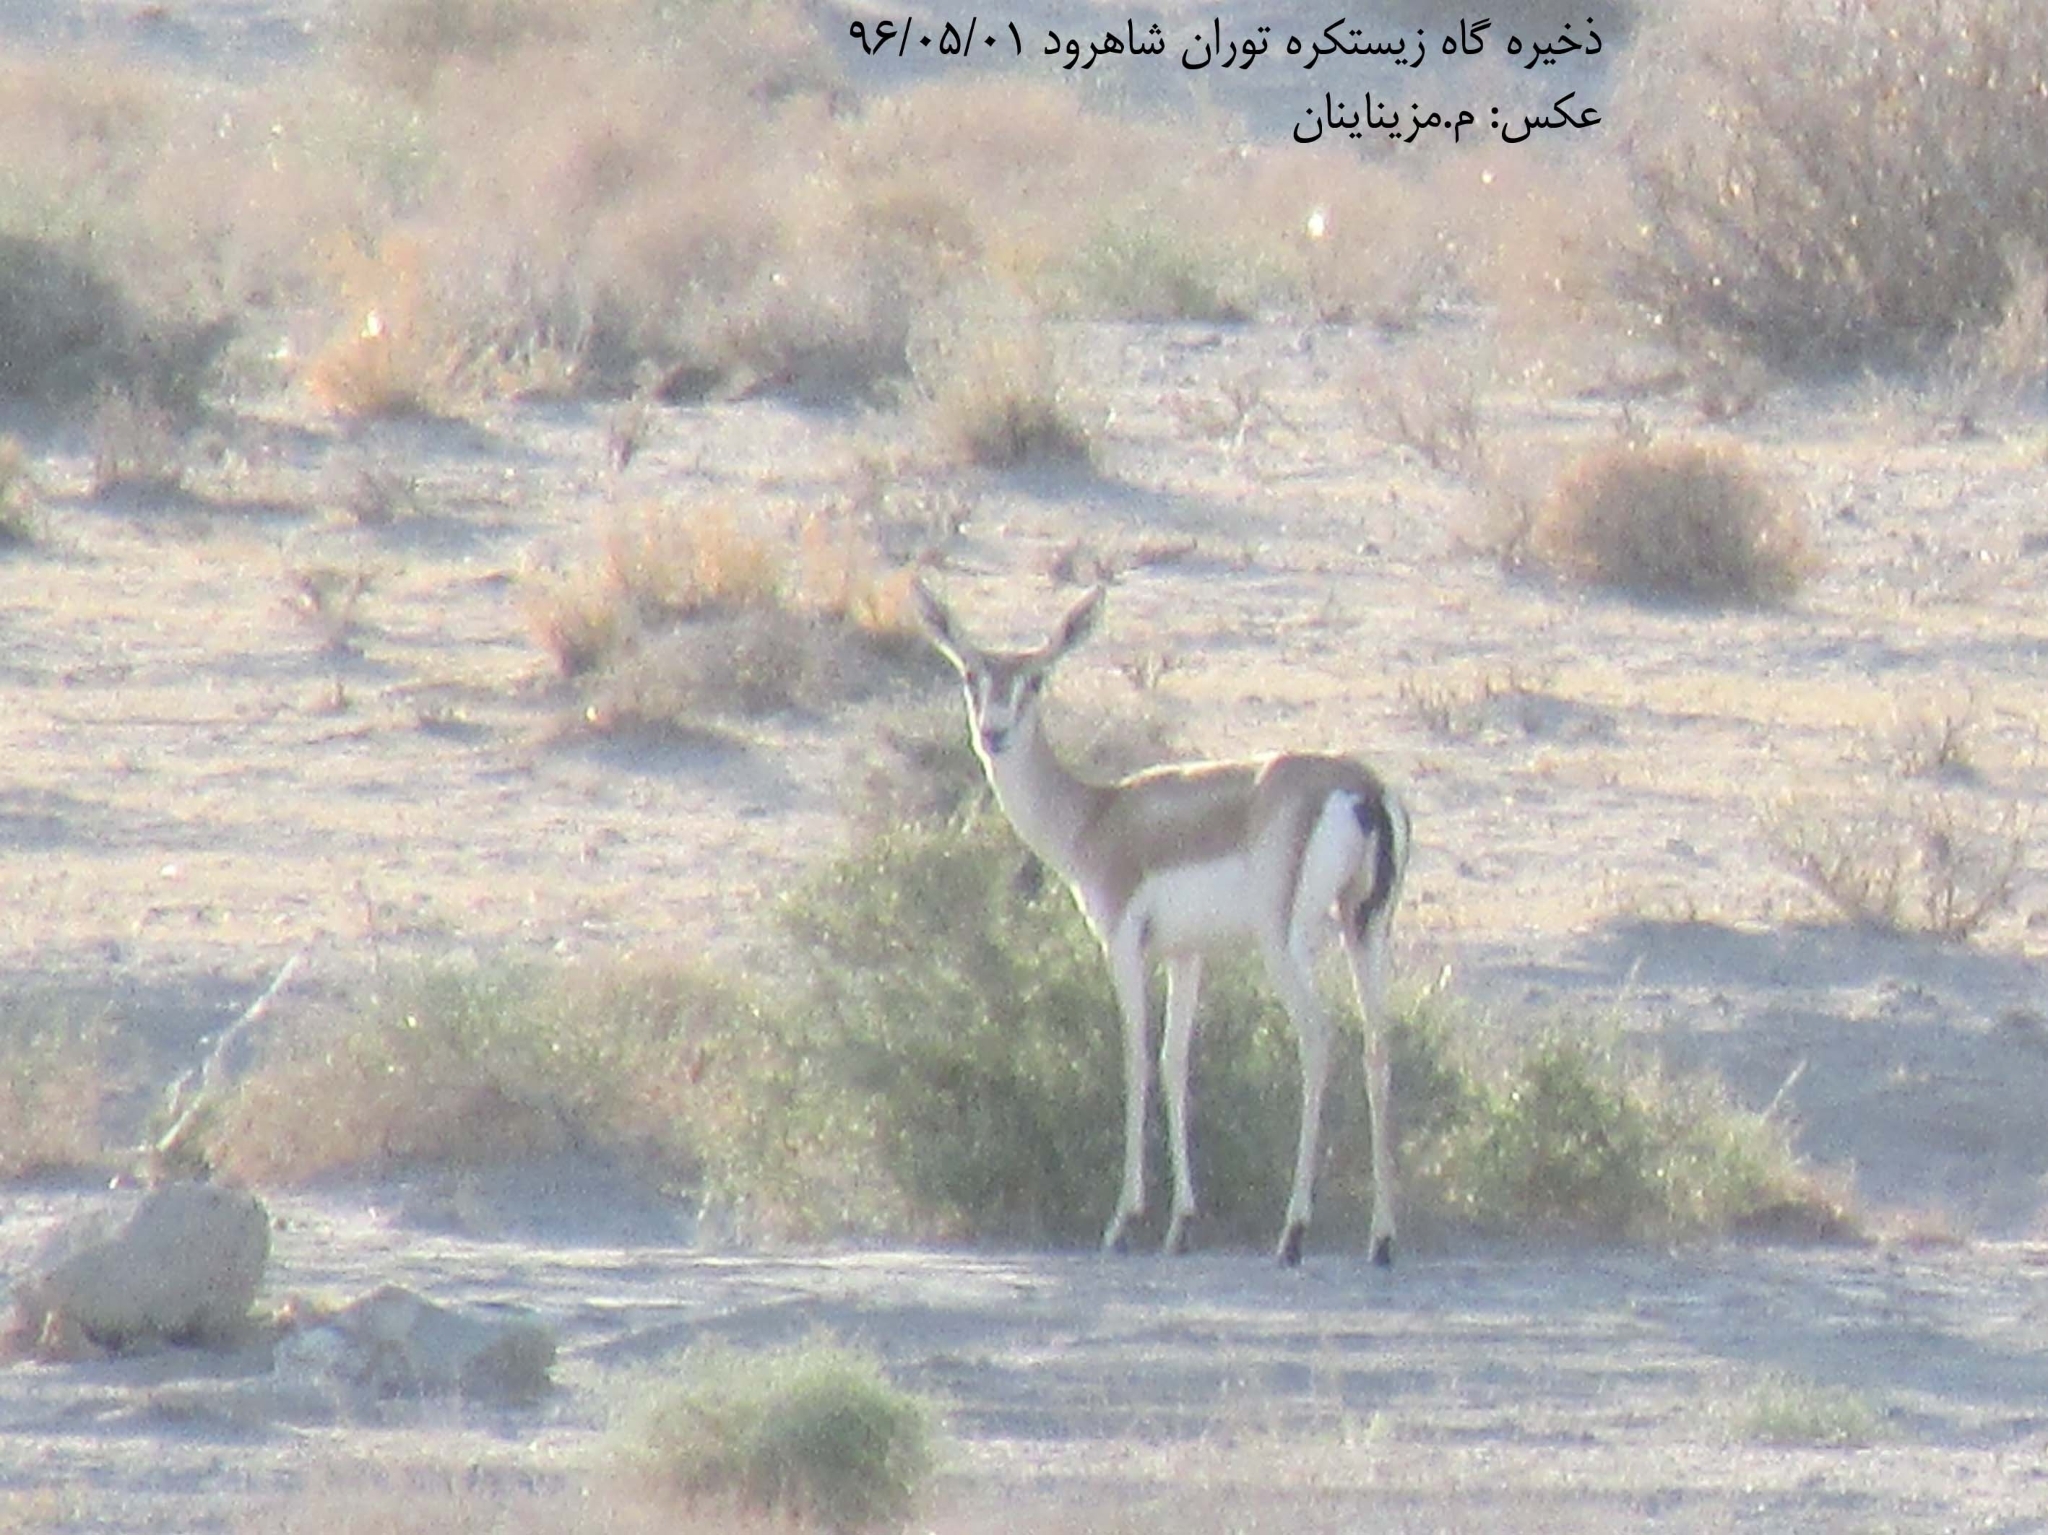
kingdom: Animalia
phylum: Chordata
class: Mammalia
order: Artiodactyla
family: Bovidae
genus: Gazella
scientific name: Gazella subgutturosa
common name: Goitered gazelle
